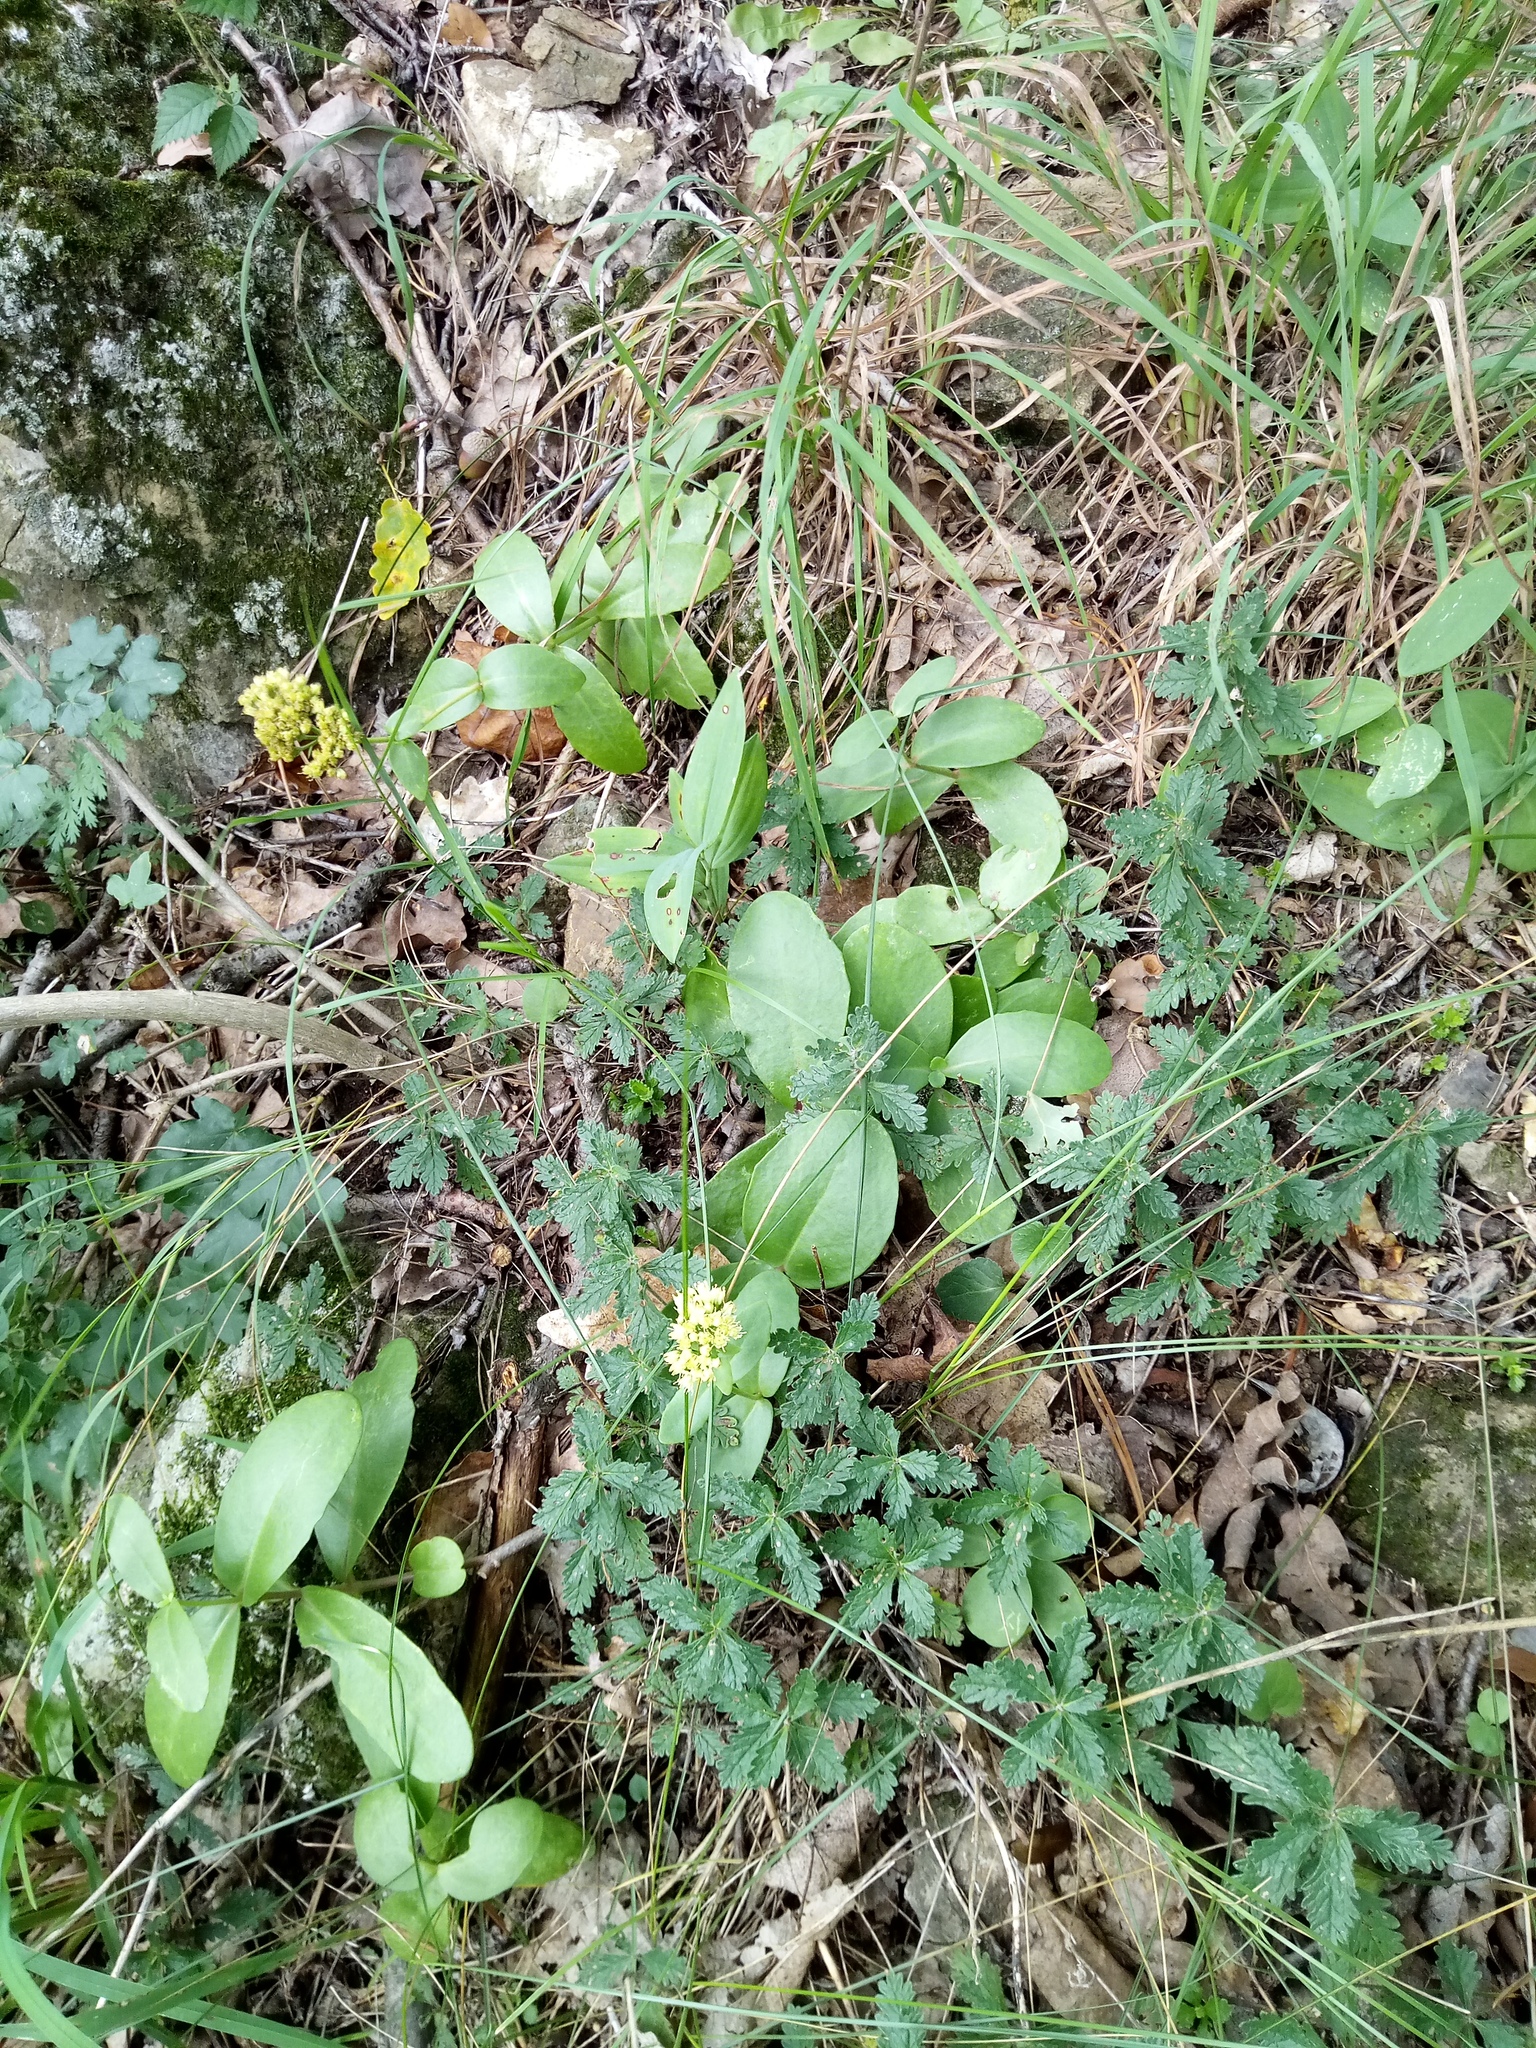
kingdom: Plantae
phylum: Tracheophyta
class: Magnoliopsida
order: Saxifragales
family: Crassulaceae
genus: Hylotelephium
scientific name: Hylotelephium maximum
